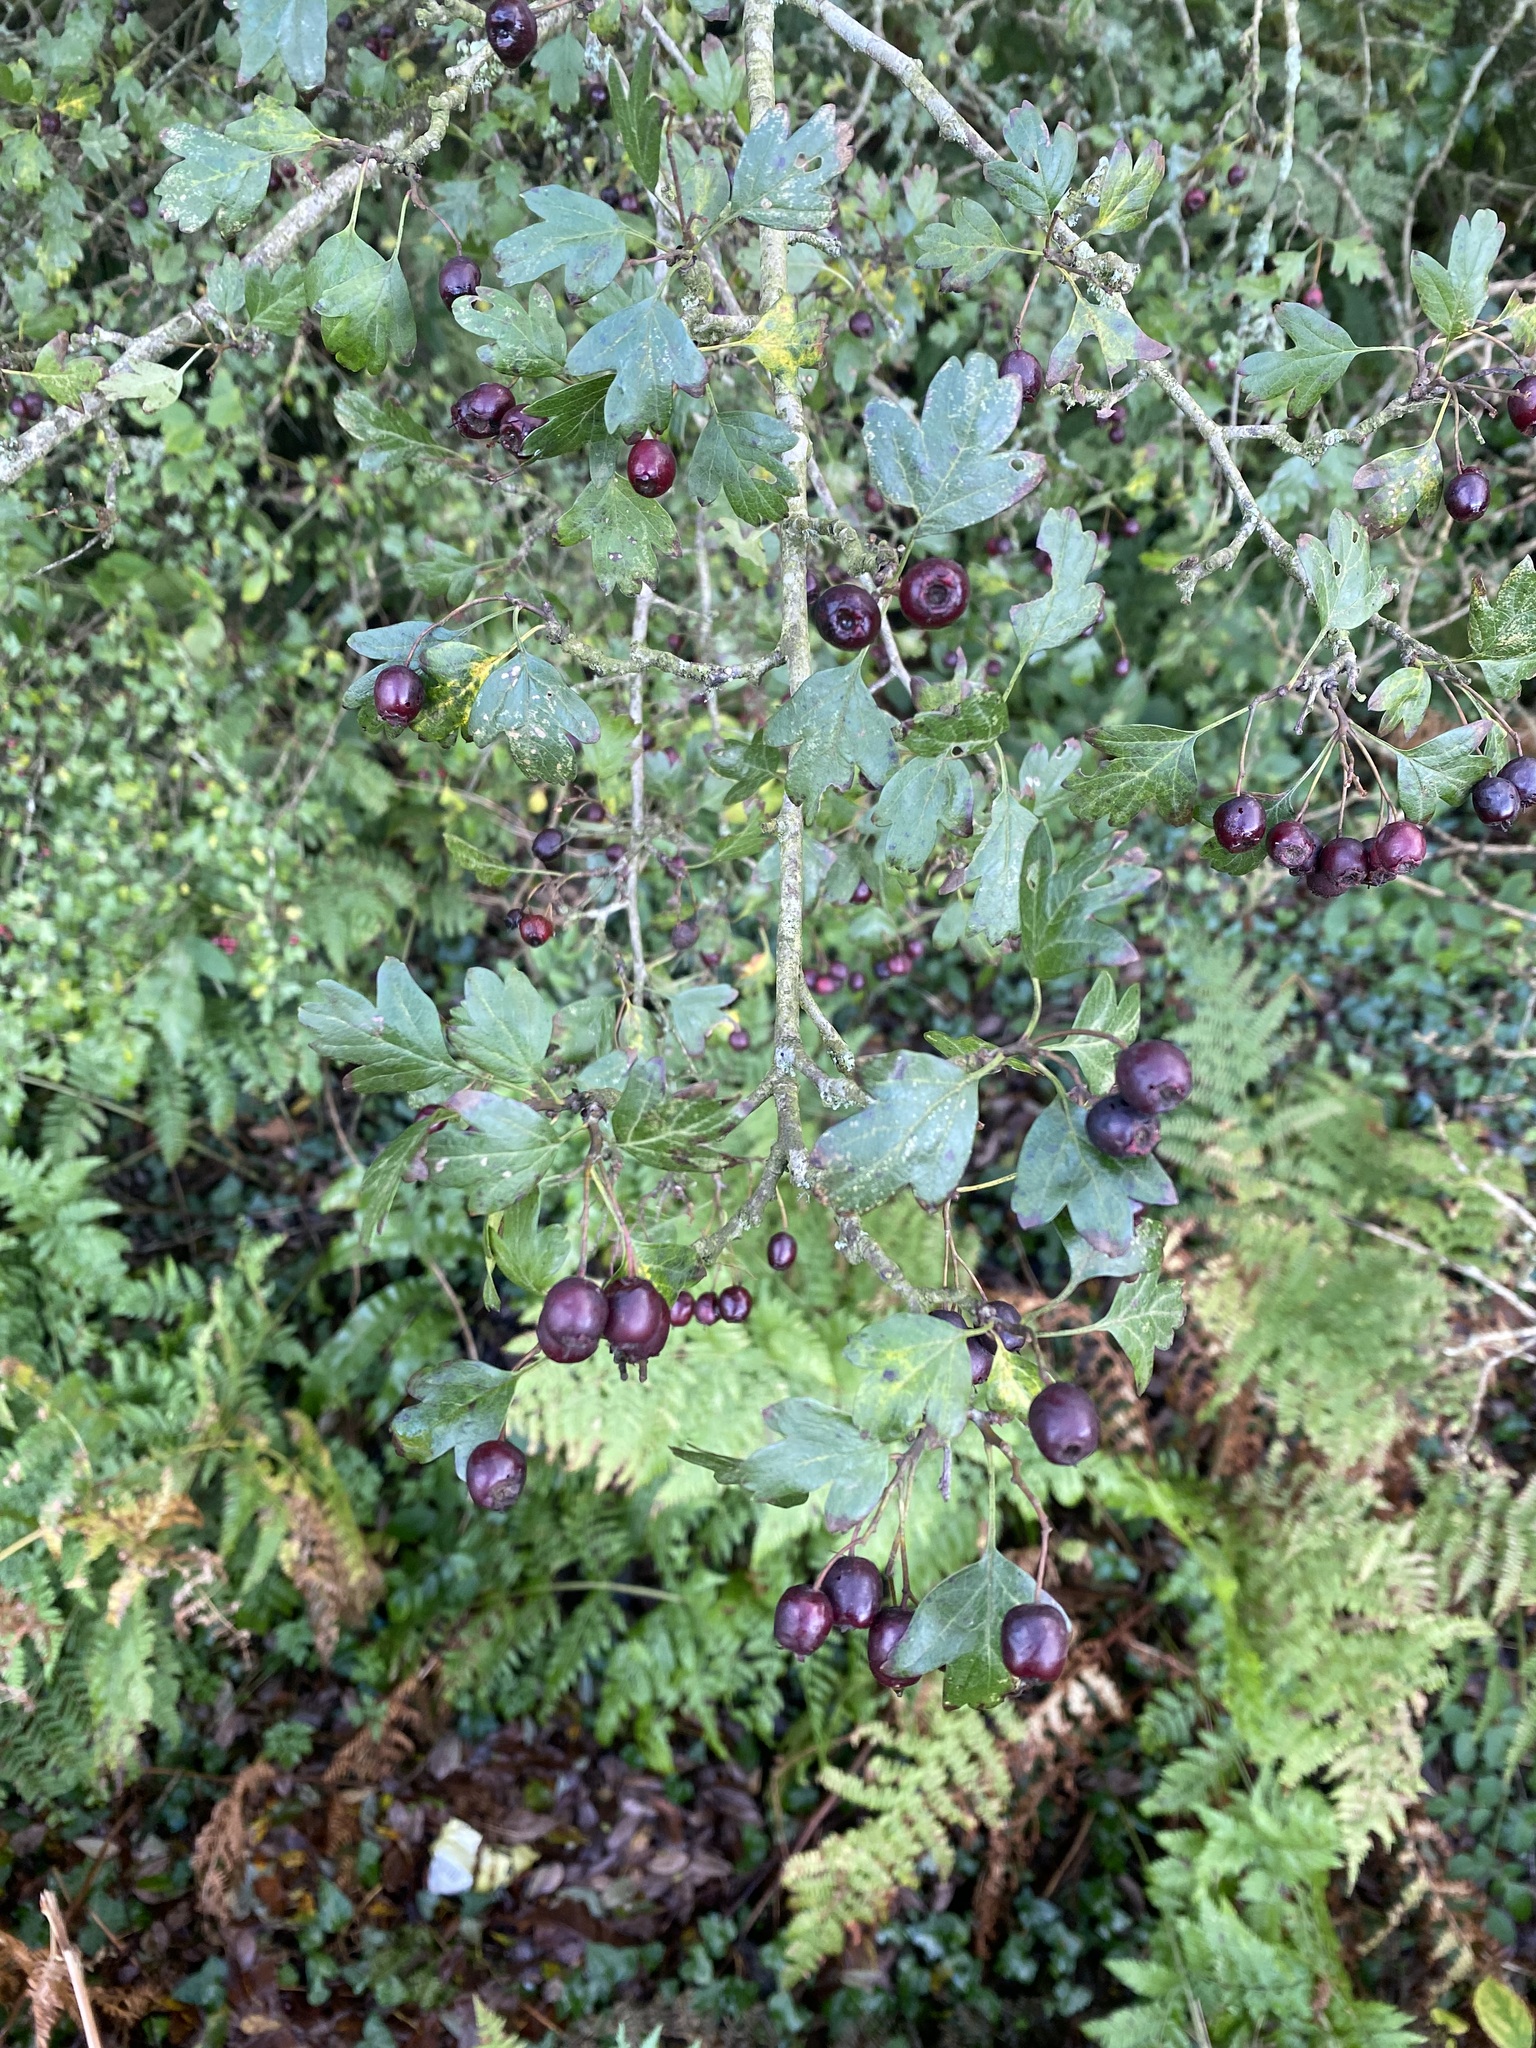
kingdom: Plantae
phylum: Tracheophyta
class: Magnoliopsida
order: Rosales
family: Rosaceae
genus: Crataegus
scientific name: Crataegus monogyna
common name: Hawthorn
